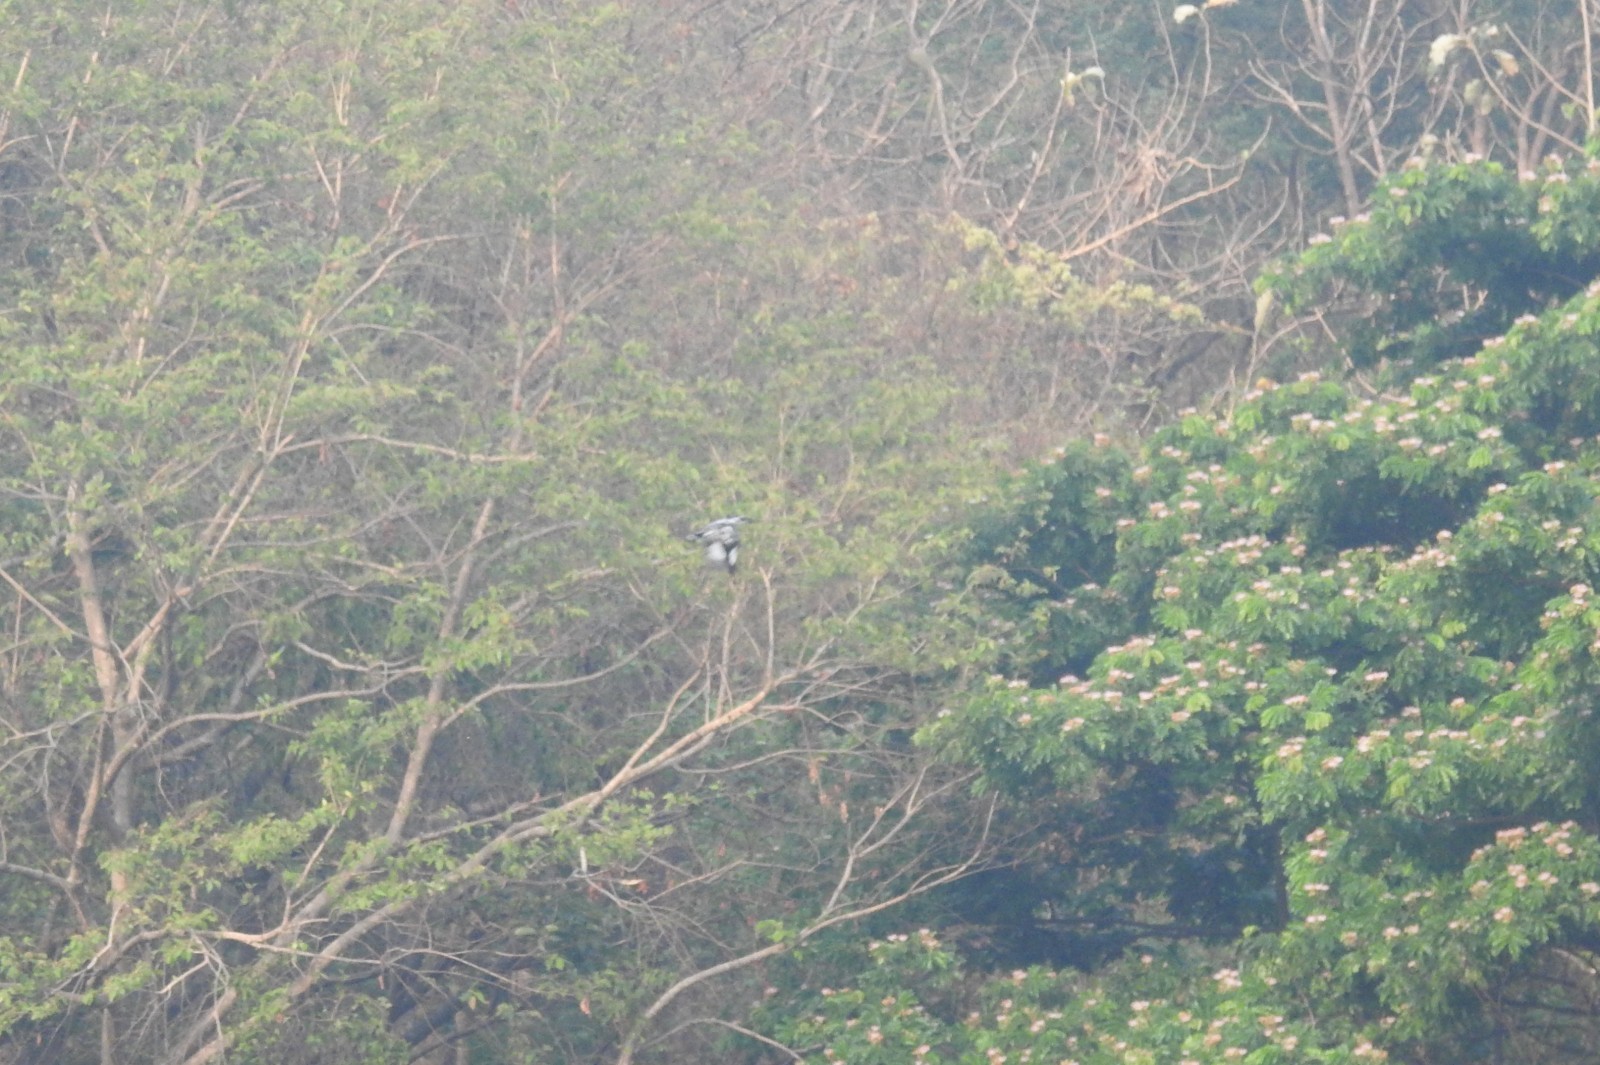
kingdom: Animalia
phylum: Chordata
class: Aves
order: Coraciiformes
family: Alcedinidae
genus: Ceryle
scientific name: Ceryle rudis
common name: Pied kingfisher
